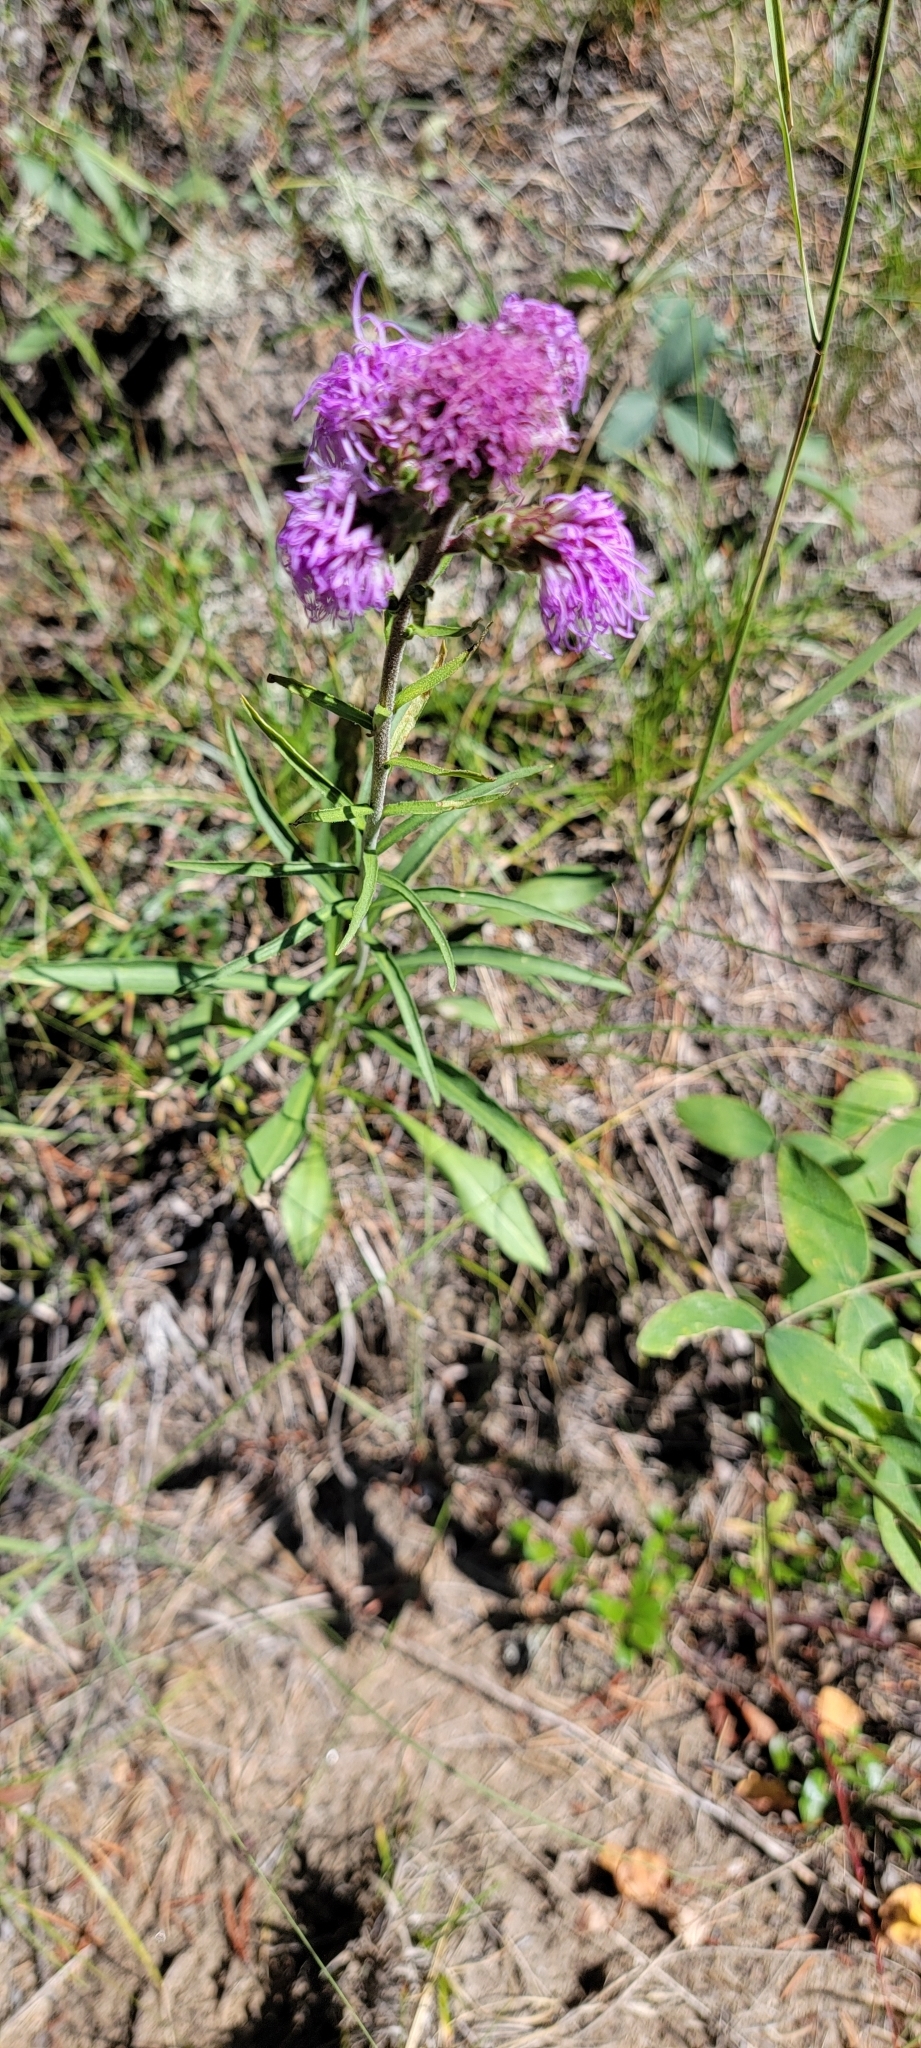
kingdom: Plantae
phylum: Tracheophyta
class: Magnoliopsida
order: Asterales
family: Asteraceae
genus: Liatris
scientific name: Liatris ligulistylis
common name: Northern plains gayfeather
